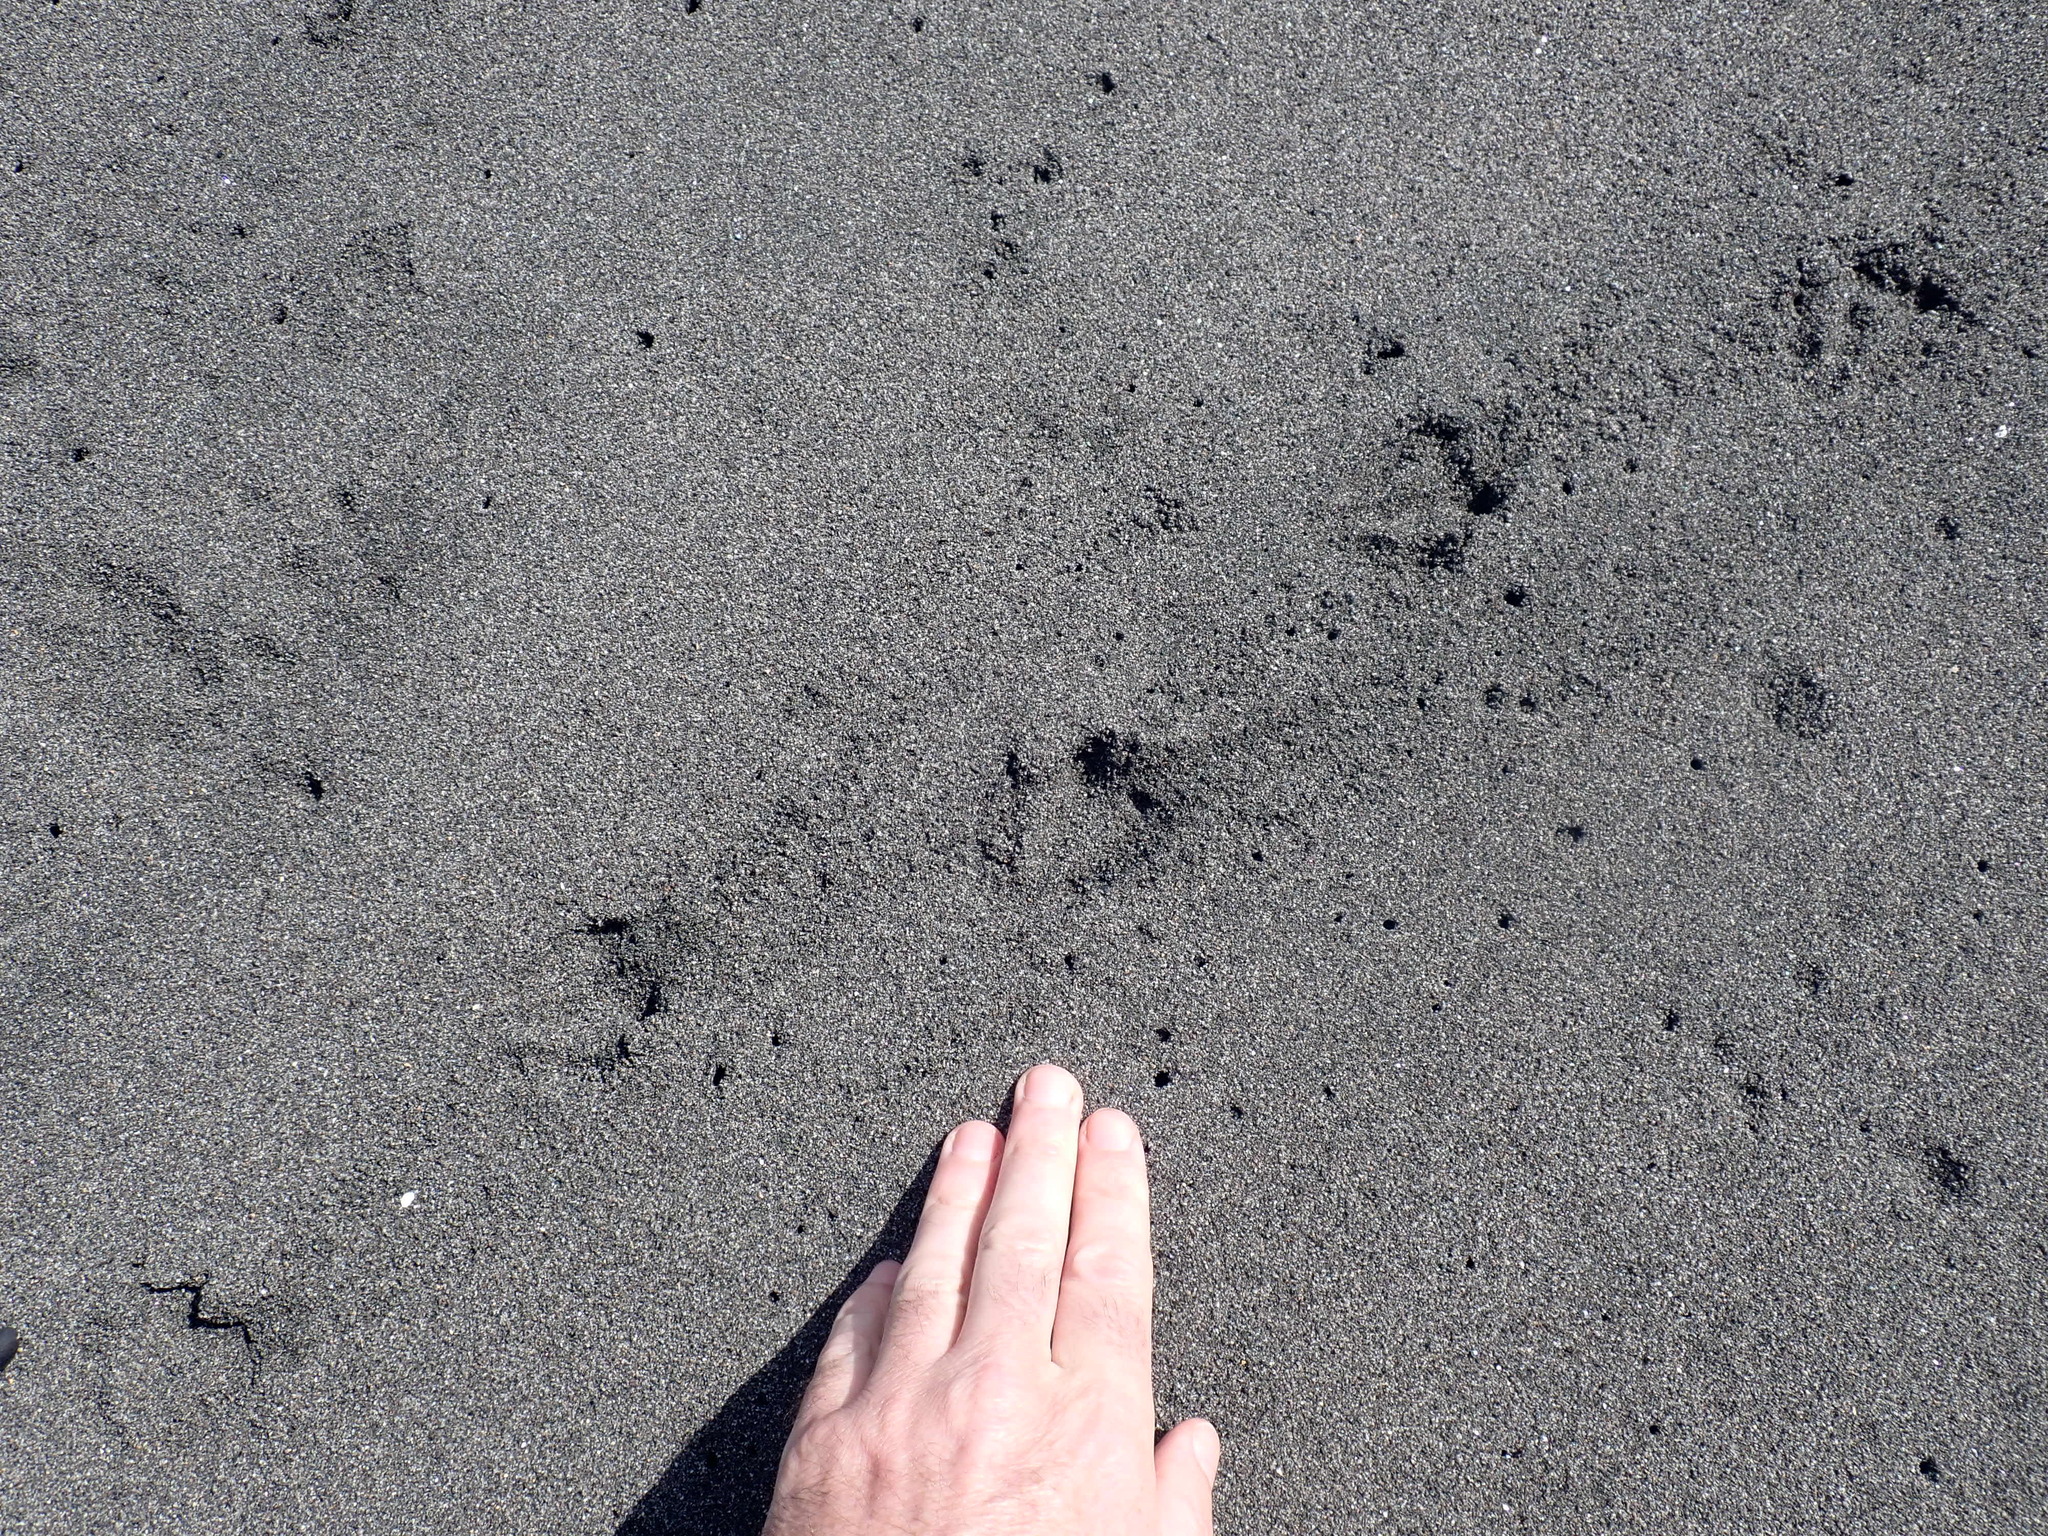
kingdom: Animalia
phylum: Chordata
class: Aves
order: Sphenisciformes
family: Spheniscidae
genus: Eudyptula
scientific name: Eudyptula minor
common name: Little penguin
